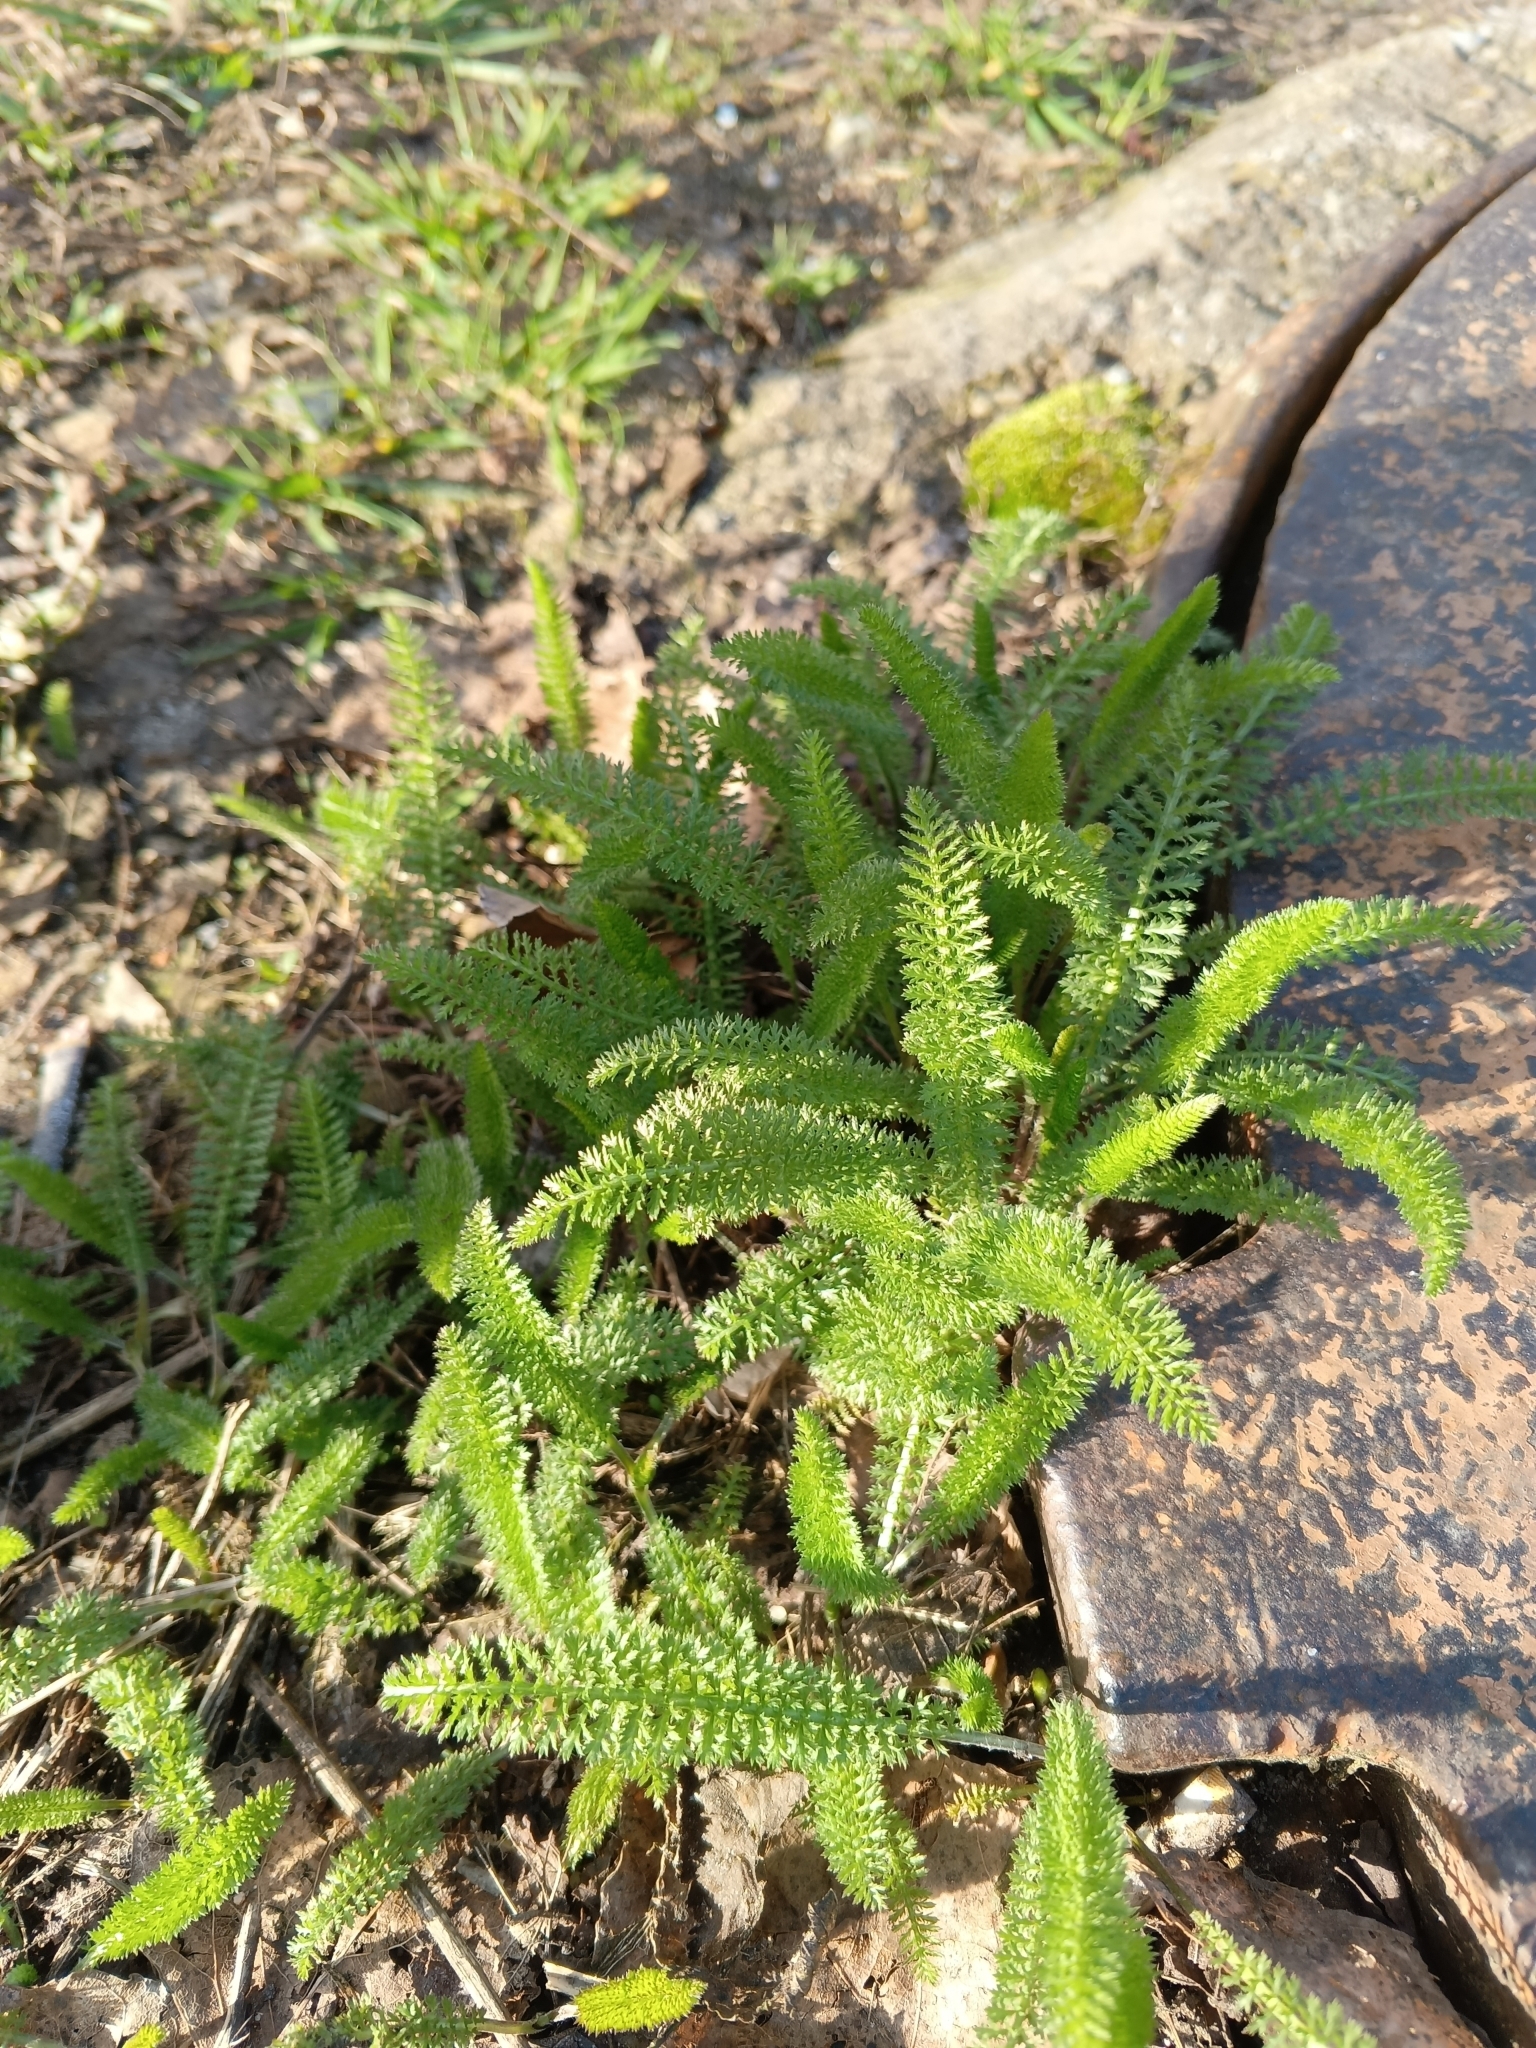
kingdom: Plantae
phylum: Tracheophyta
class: Magnoliopsida
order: Asterales
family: Asteraceae
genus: Achillea
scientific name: Achillea millefolium
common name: Yarrow
